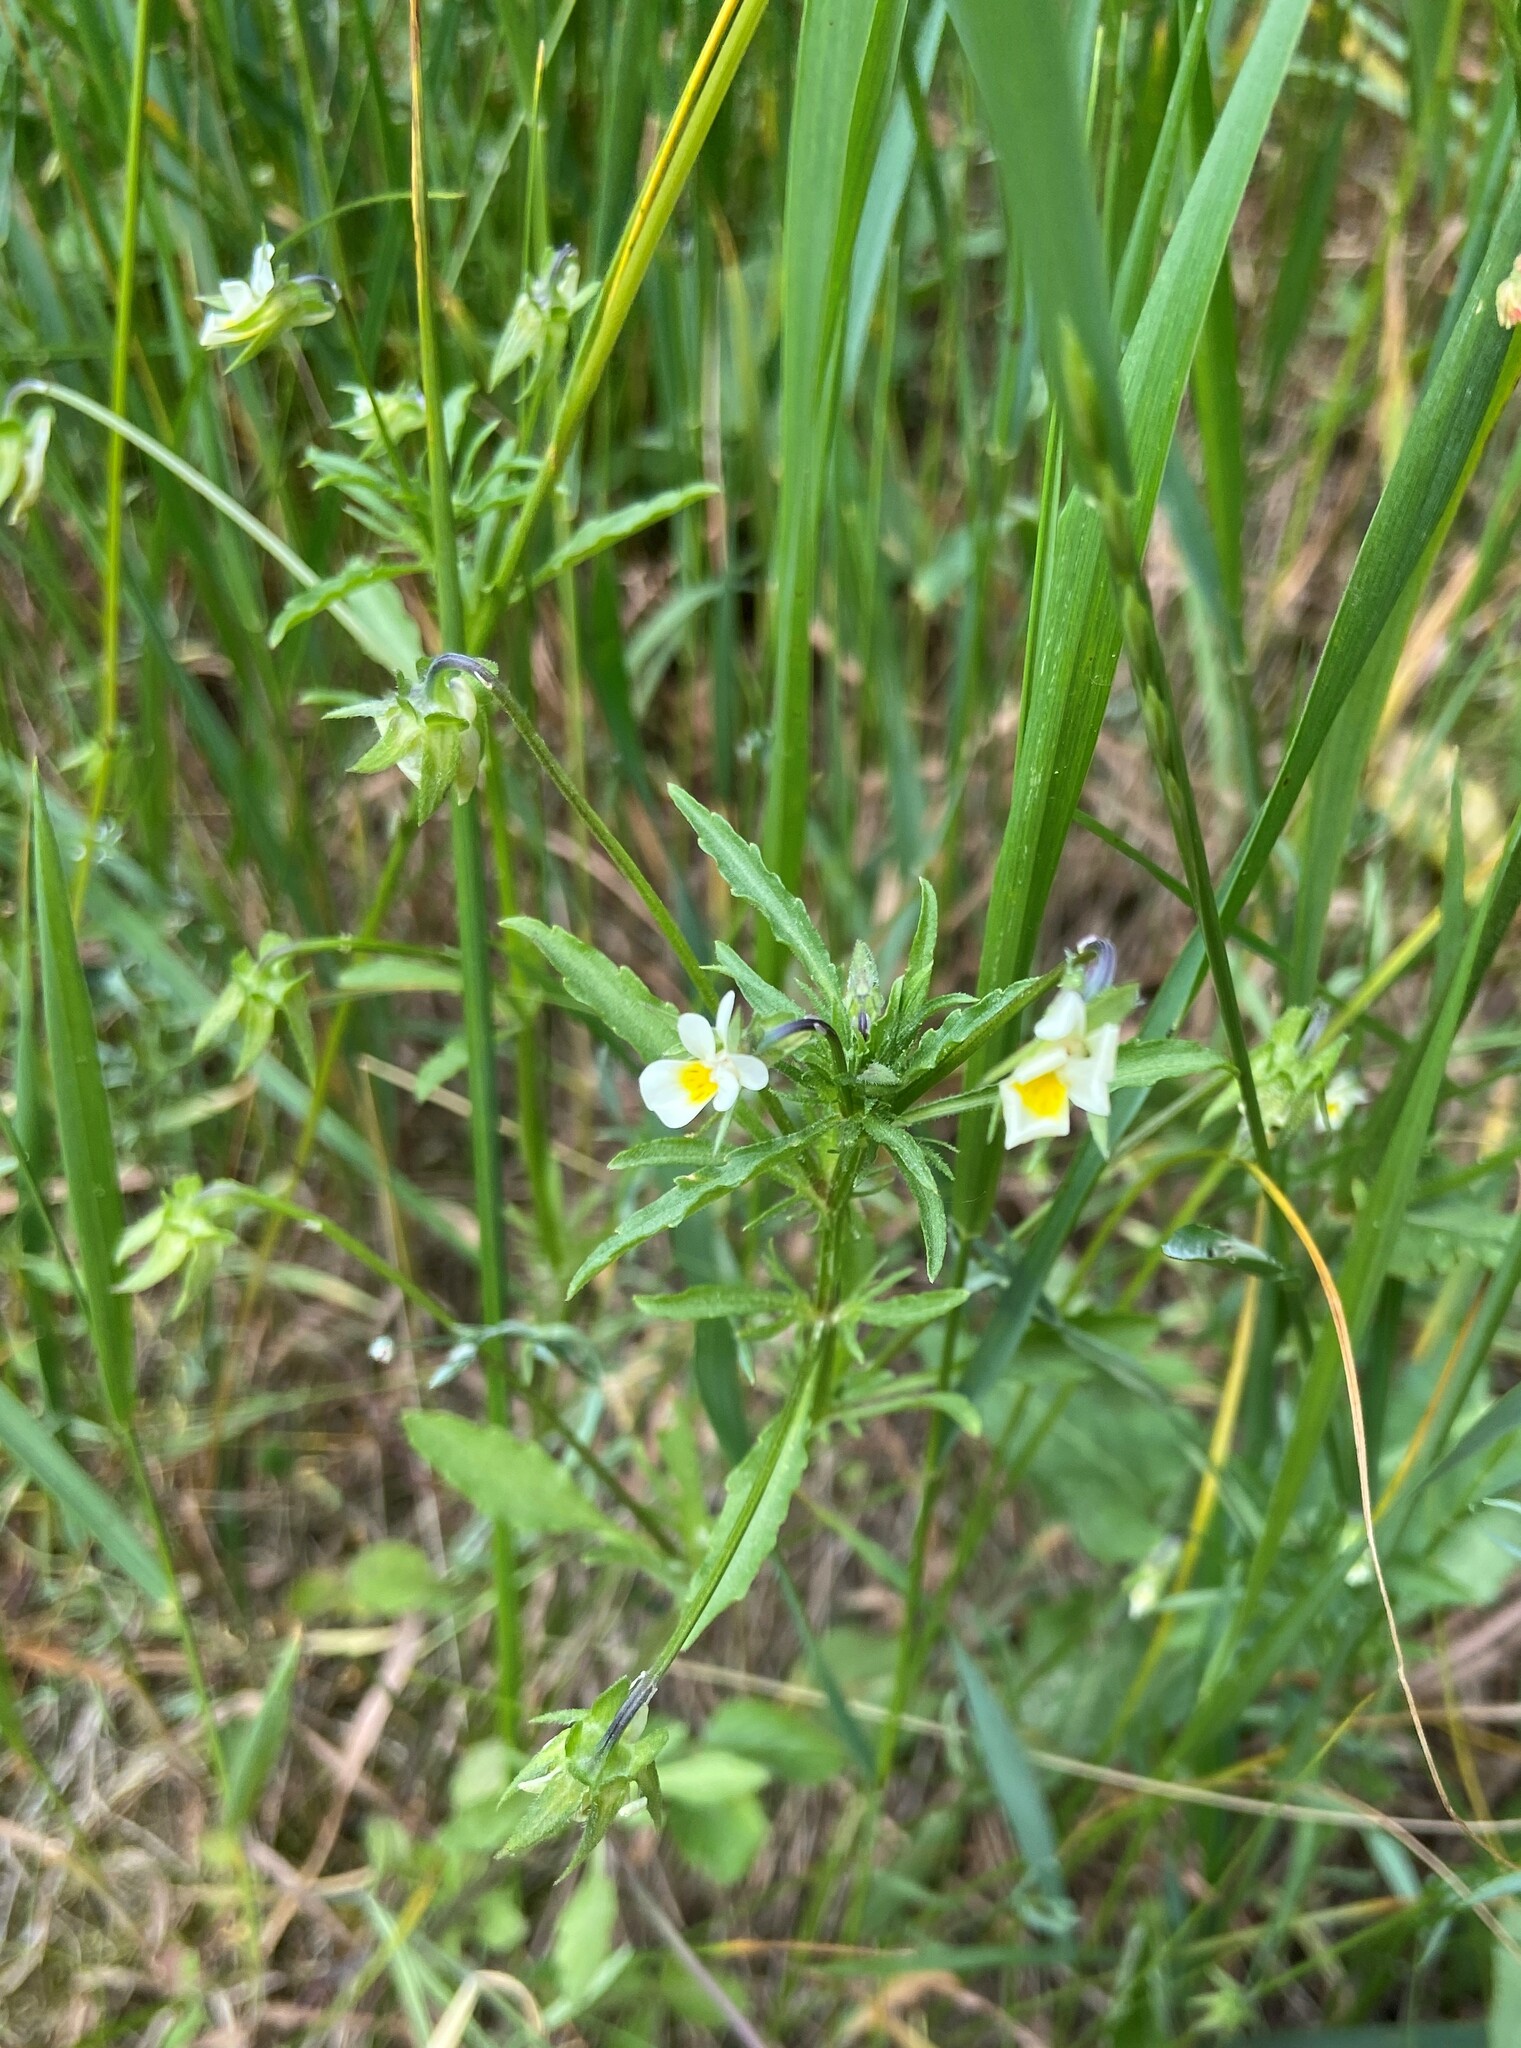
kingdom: Plantae
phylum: Tracheophyta
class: Magnoliopsida
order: Malpighiales
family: Violaceae
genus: Viola
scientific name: Viola arvensis
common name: Field pansy
